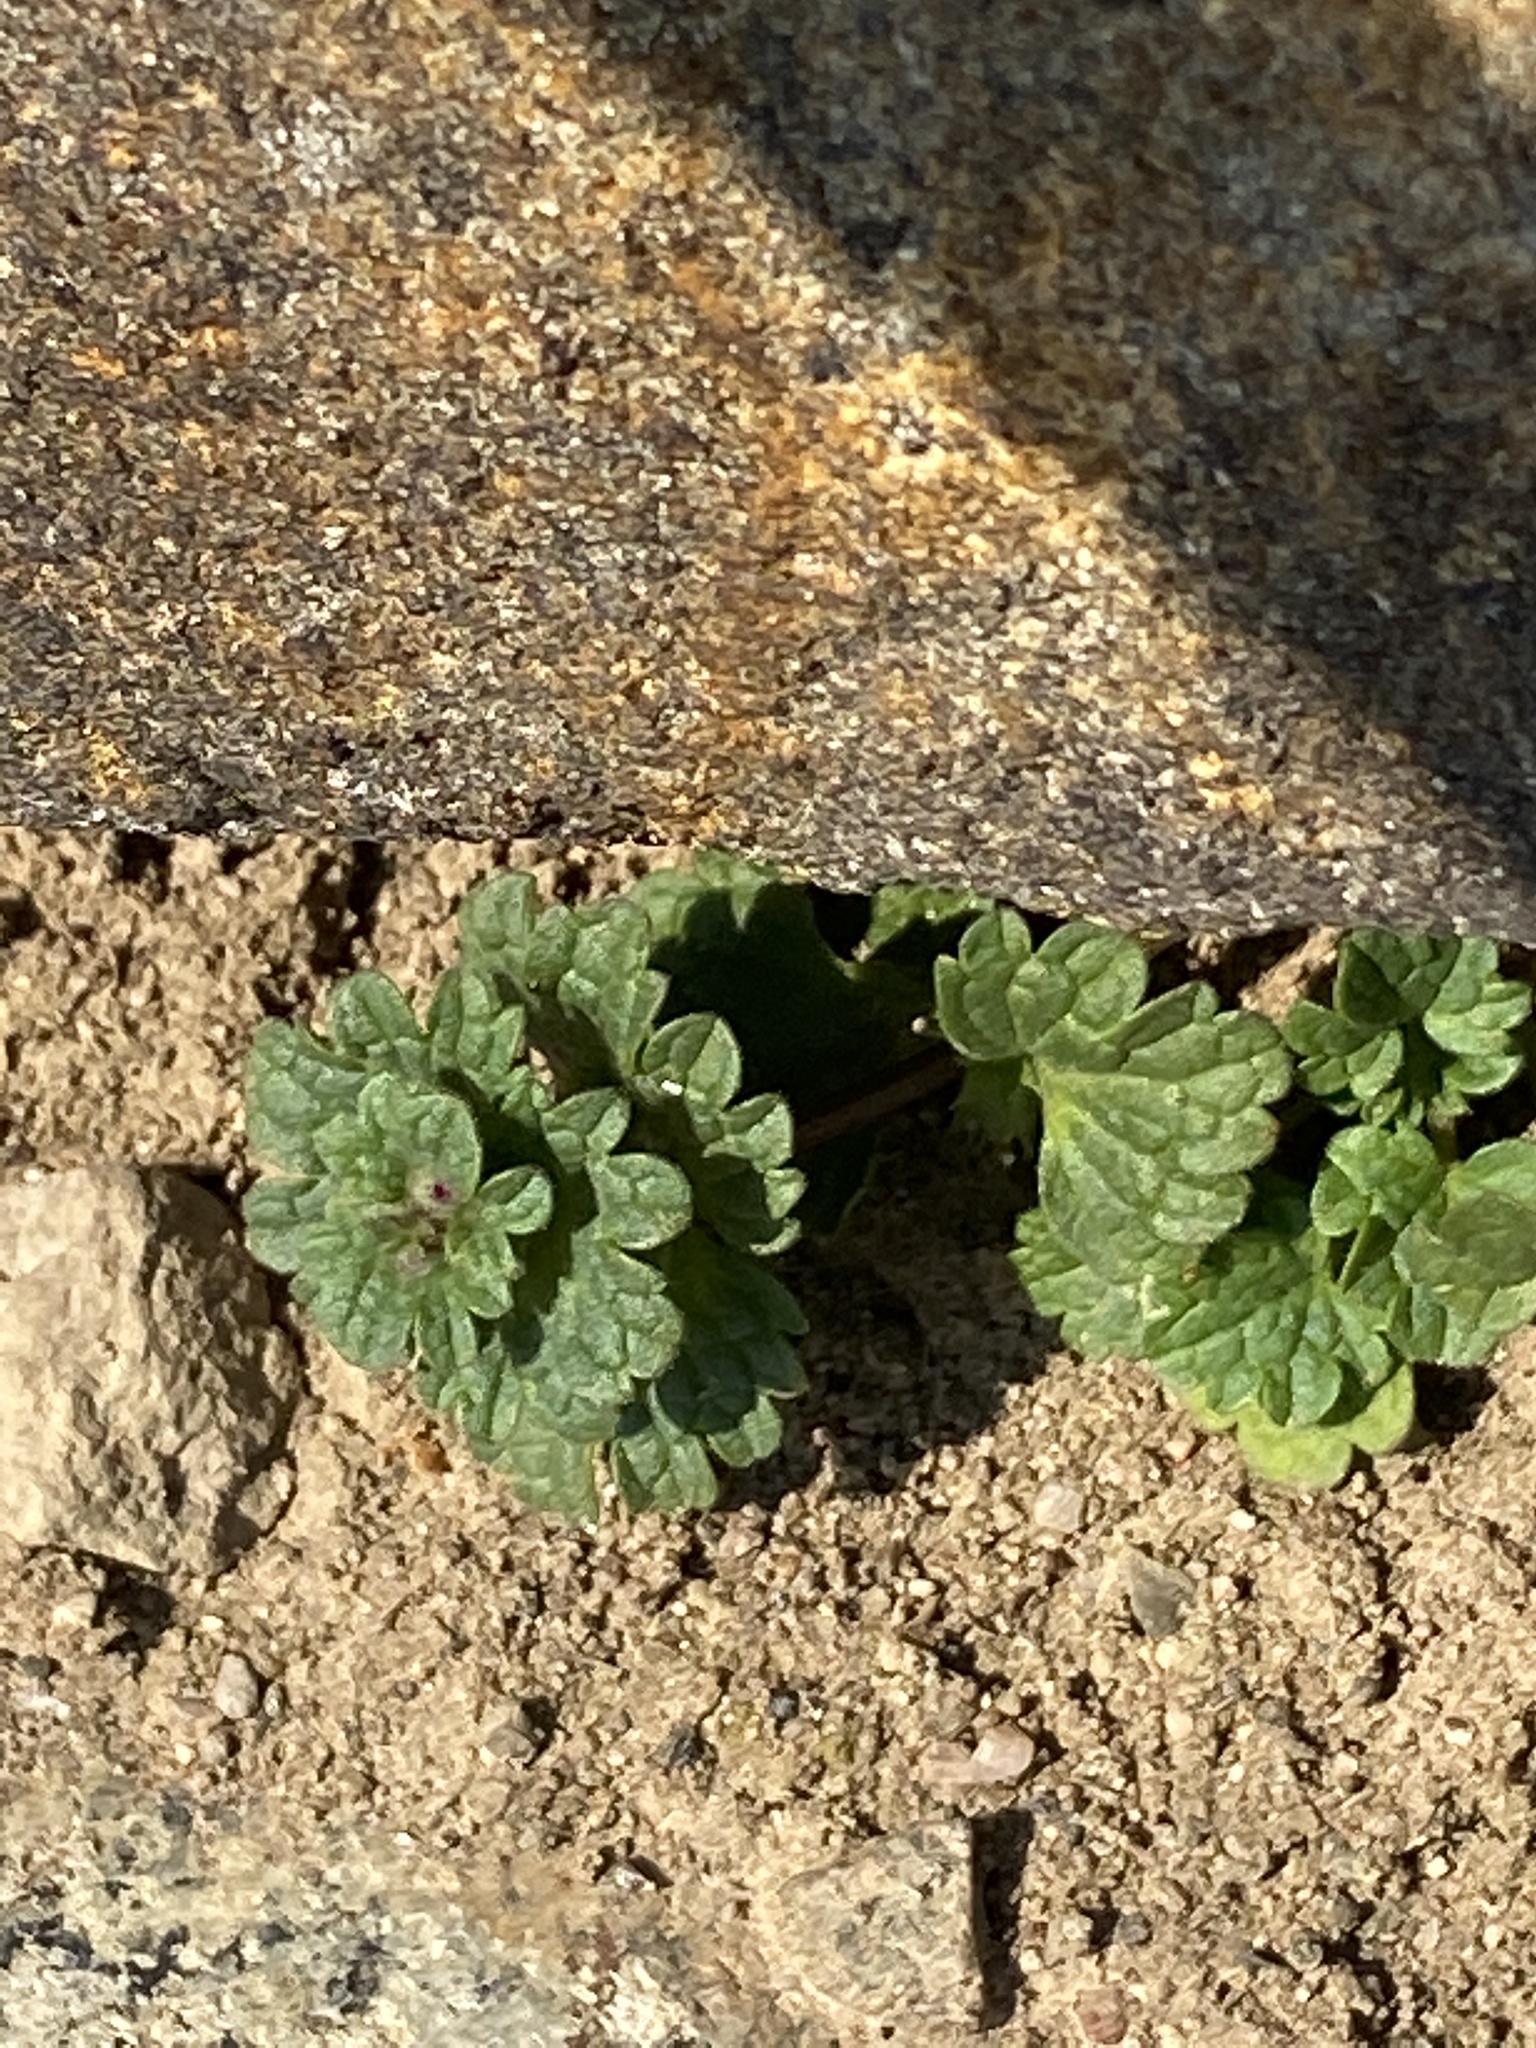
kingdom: Plantae
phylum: Tracheophyta
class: Magnoliopsida
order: Lamiales
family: Lamiaceae
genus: Lamium
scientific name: Lamium amplexicaule
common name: Henbit dead-nettle
